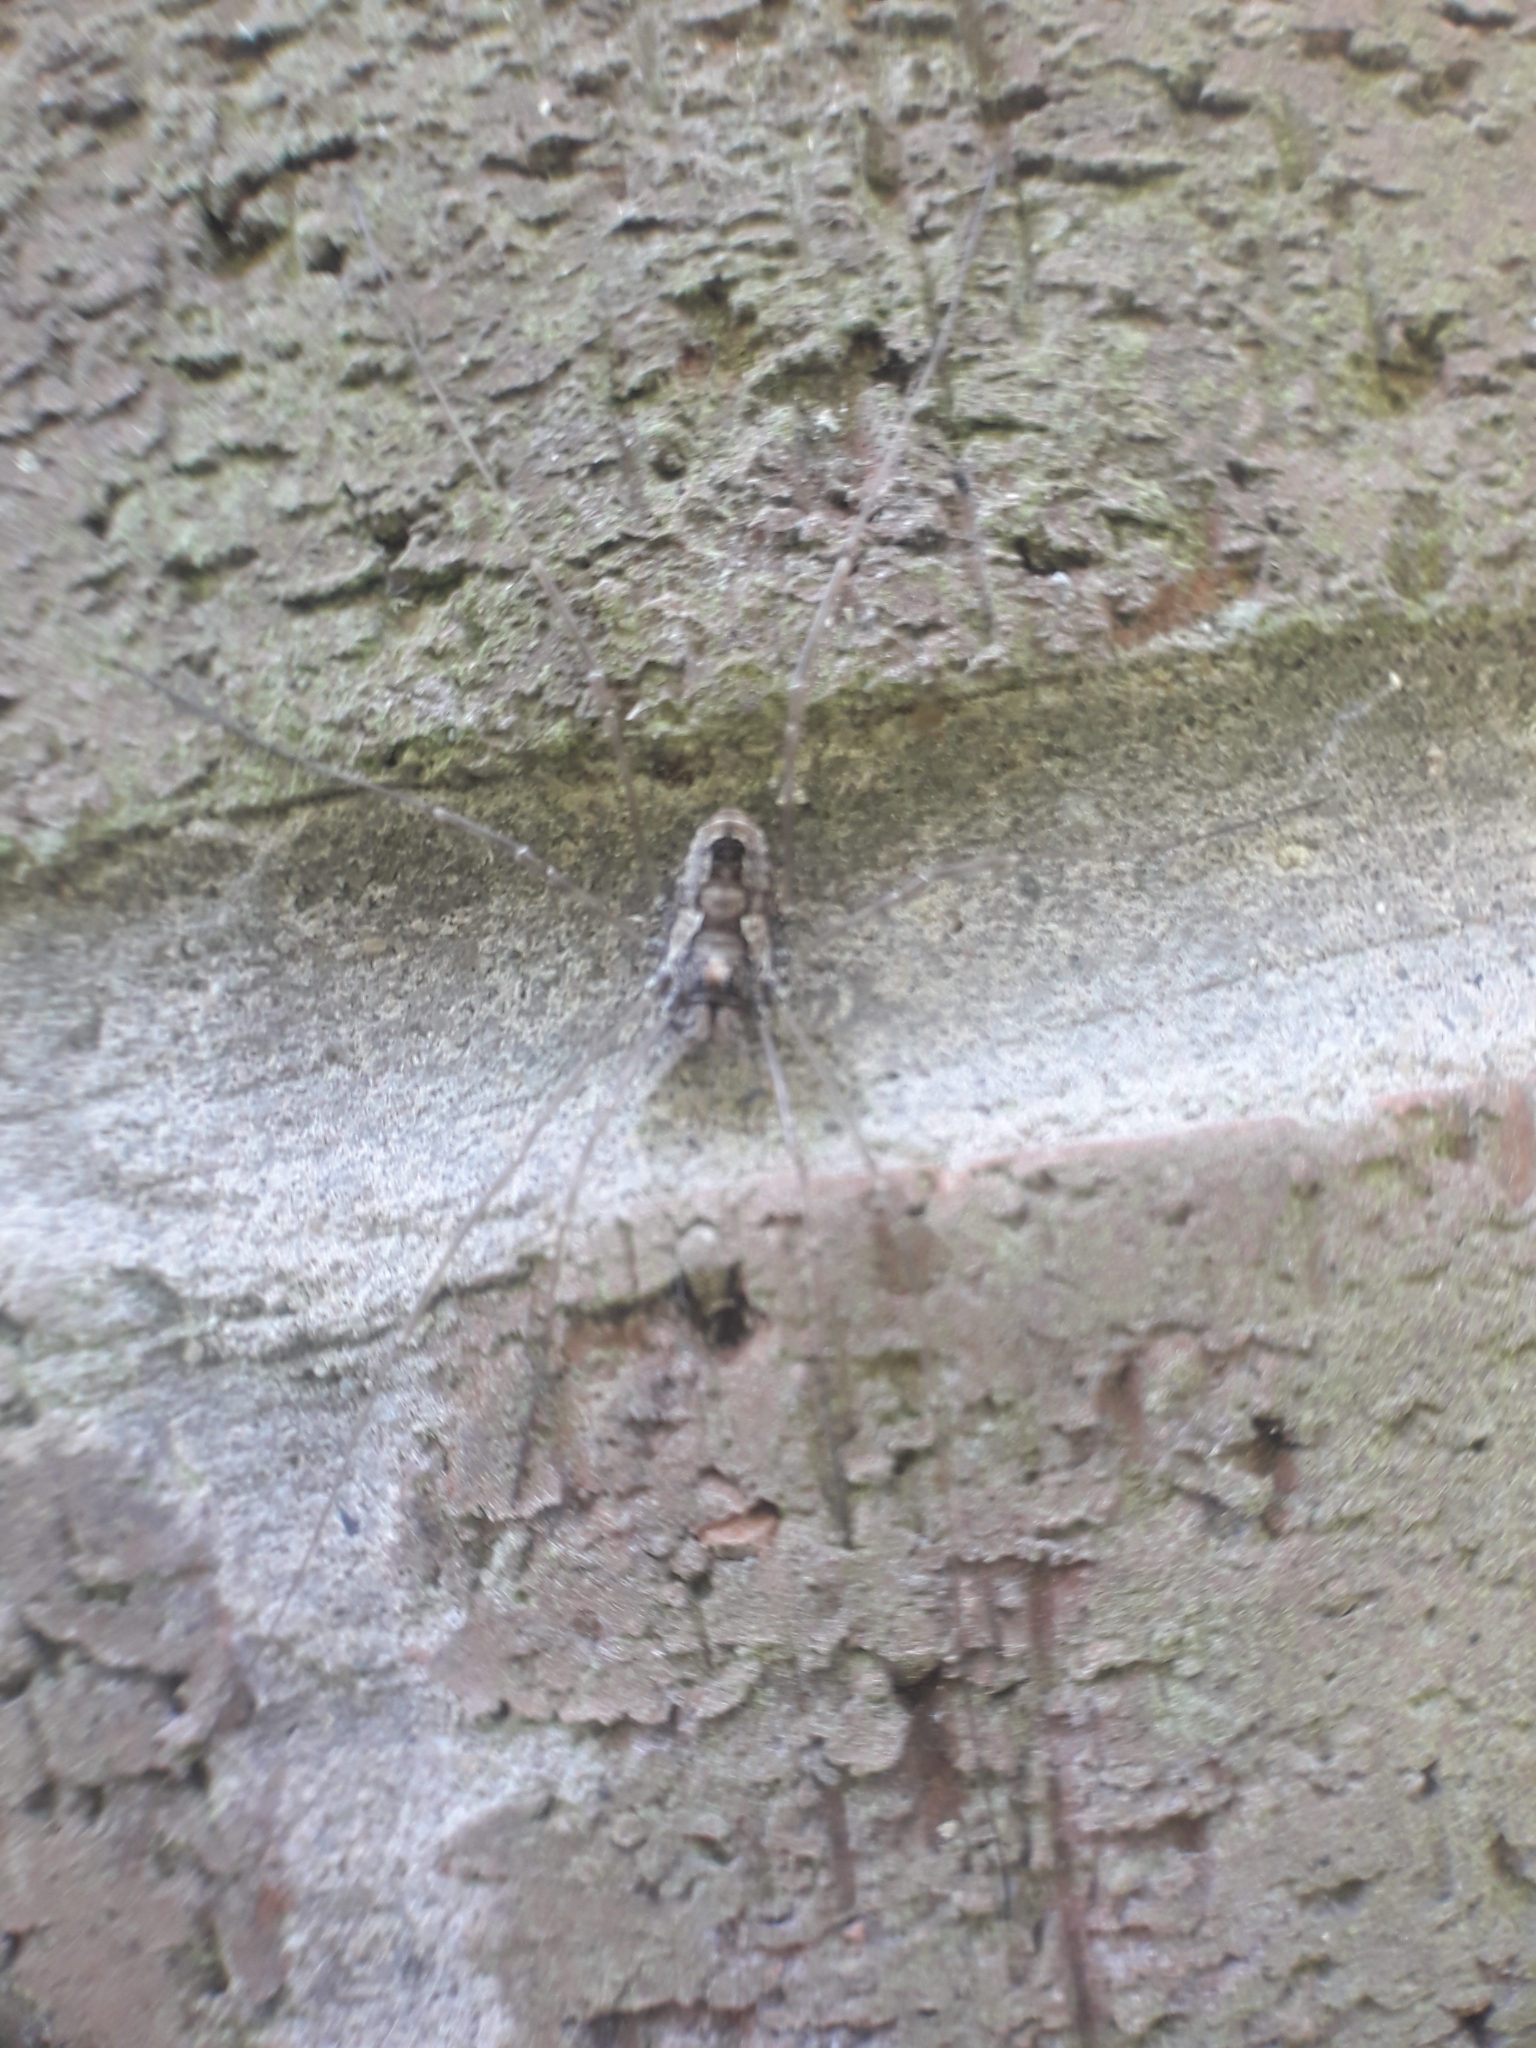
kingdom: Animalia
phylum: Arthropoda
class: Arachnida
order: Opiliones
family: Phalangiidae
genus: Platybunus
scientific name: Platybunus pinetorum
